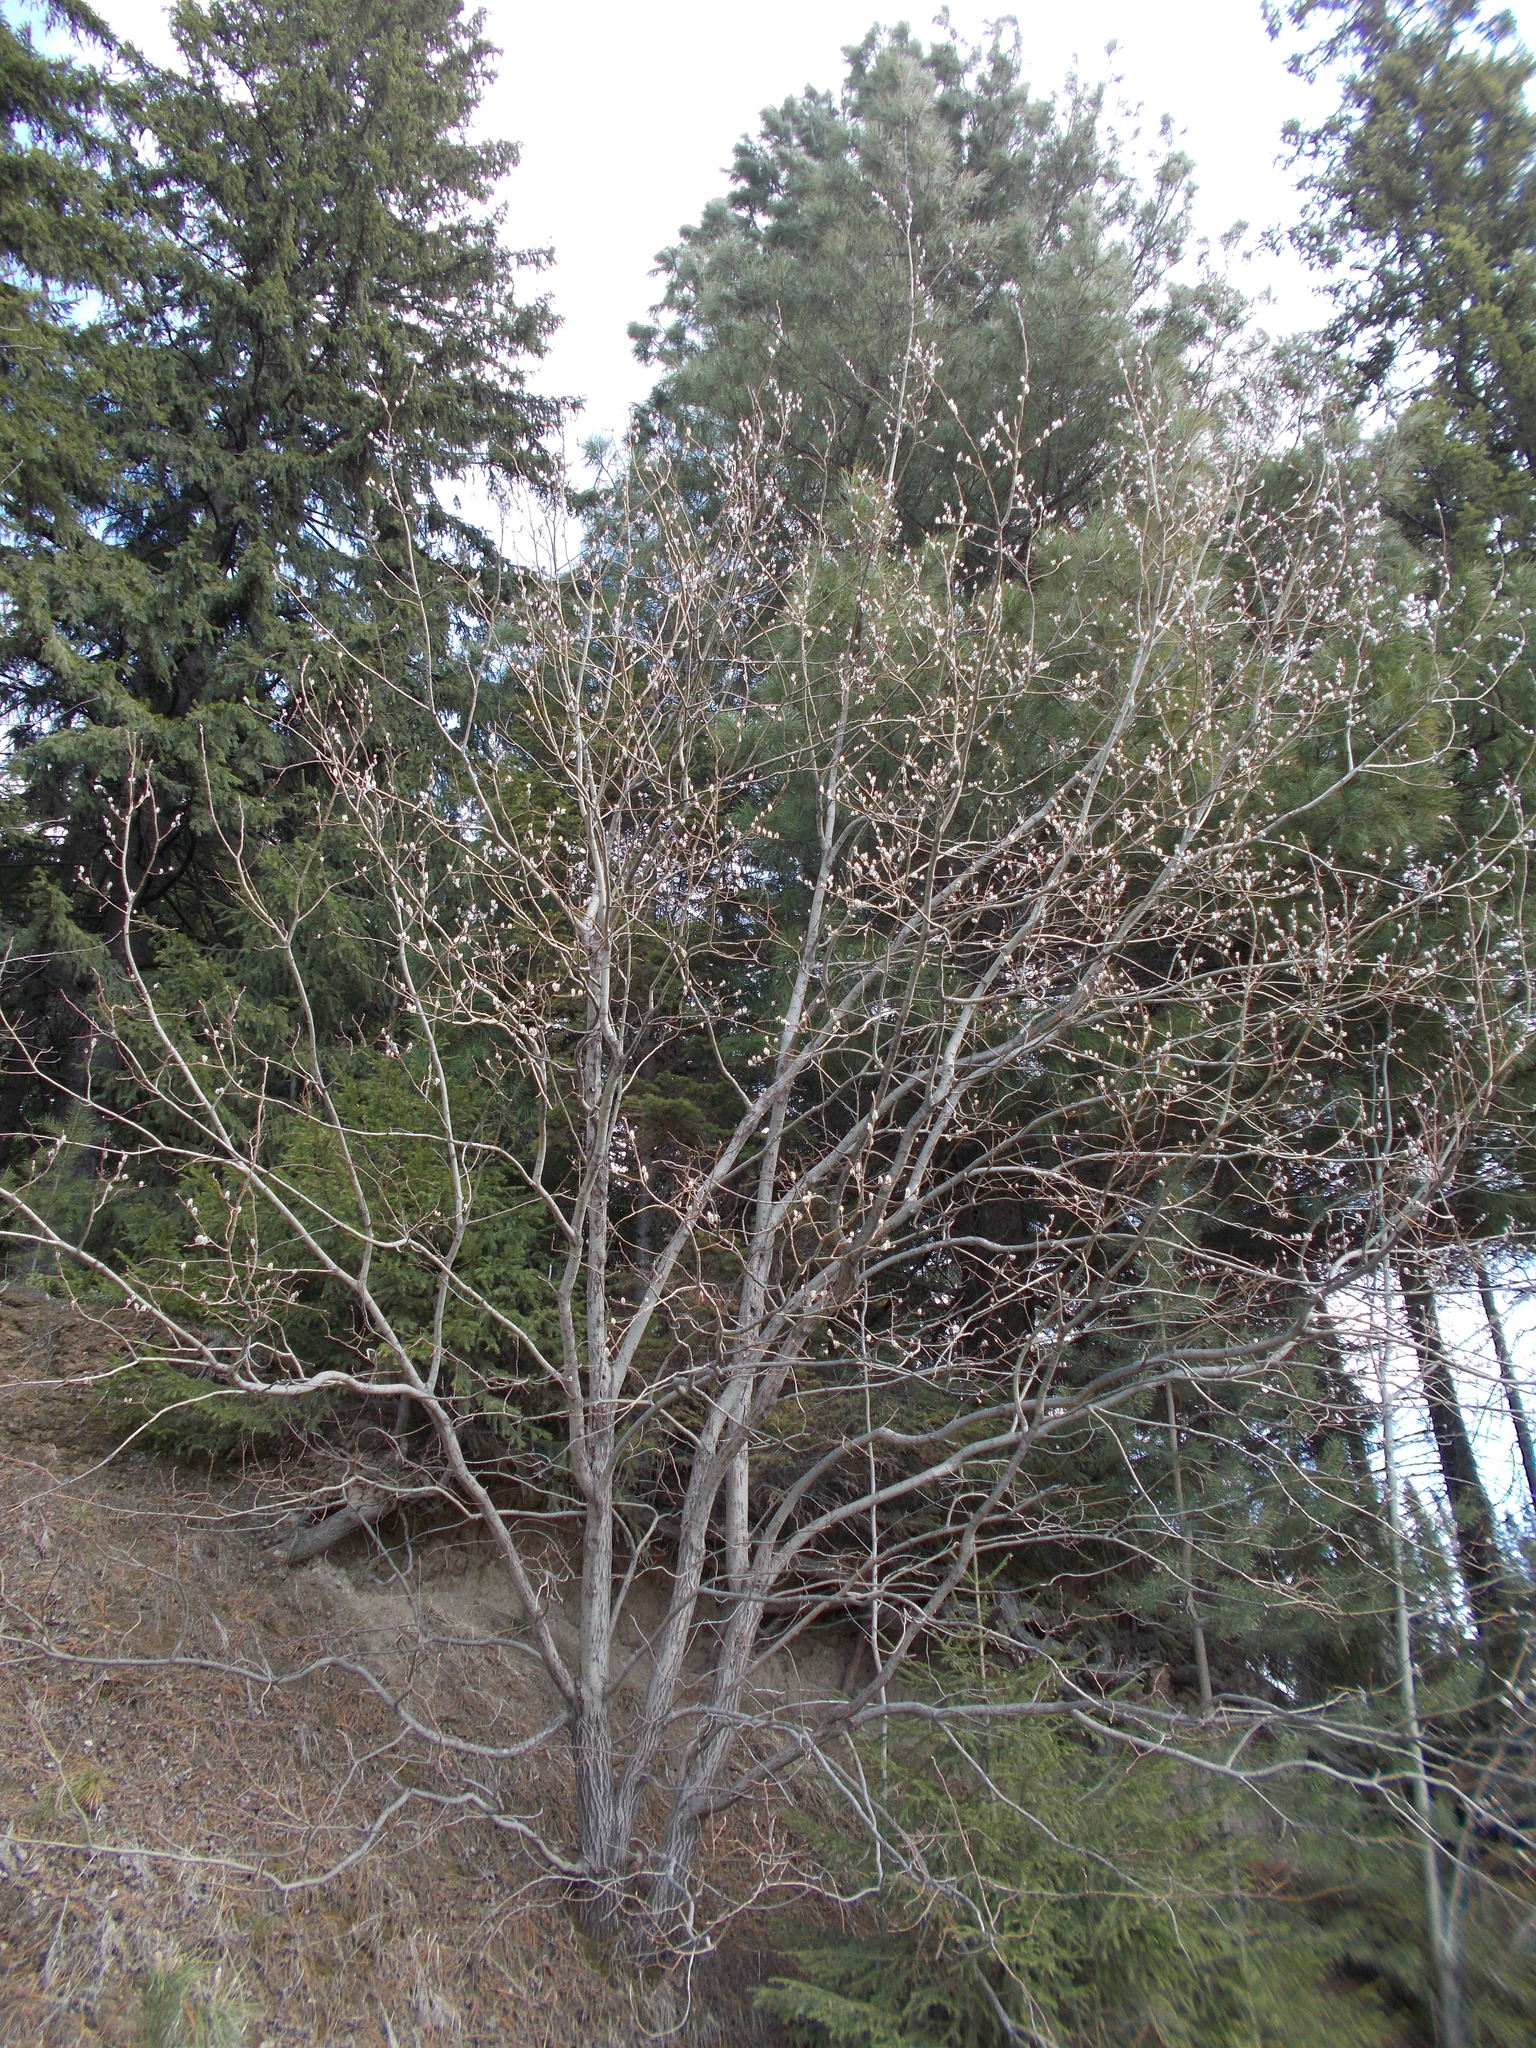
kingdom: Plantae
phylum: Tracheophyta
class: Magnoliopsida
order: Malpighiales
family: Salicaceae
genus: Salix
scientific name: Salix caprea
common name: Goat willow
